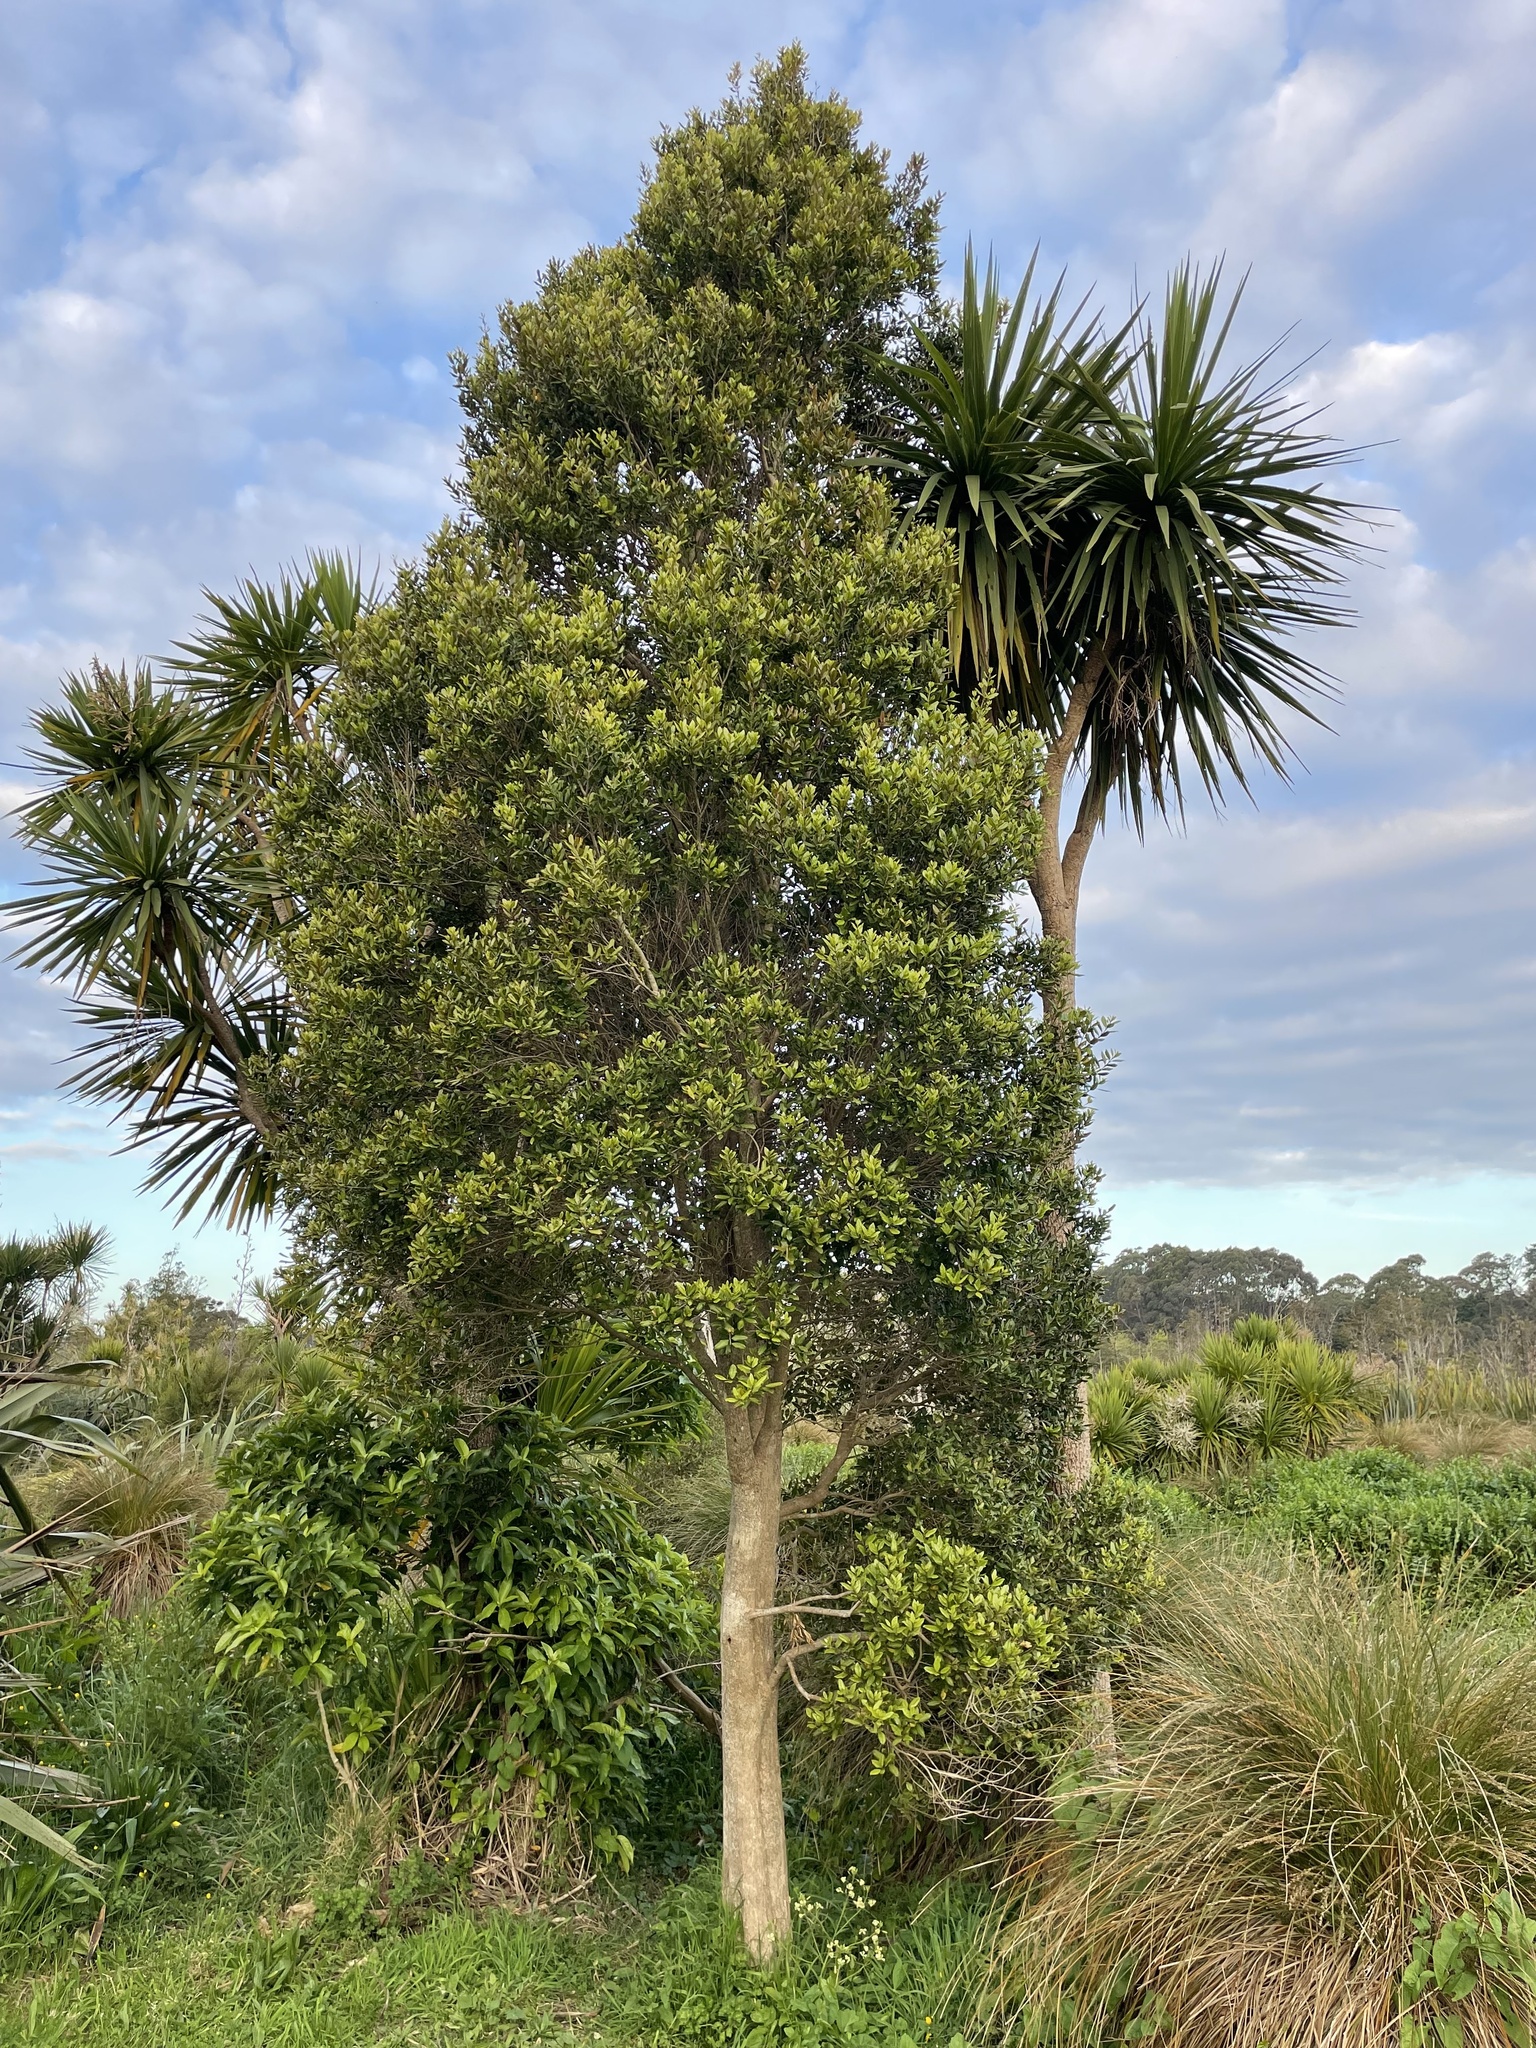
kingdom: Plantae
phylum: Tracheophyta
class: Magnoliopsida
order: Myrtales
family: Myrtaceae
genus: Syzygium
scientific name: Syzygium maire
